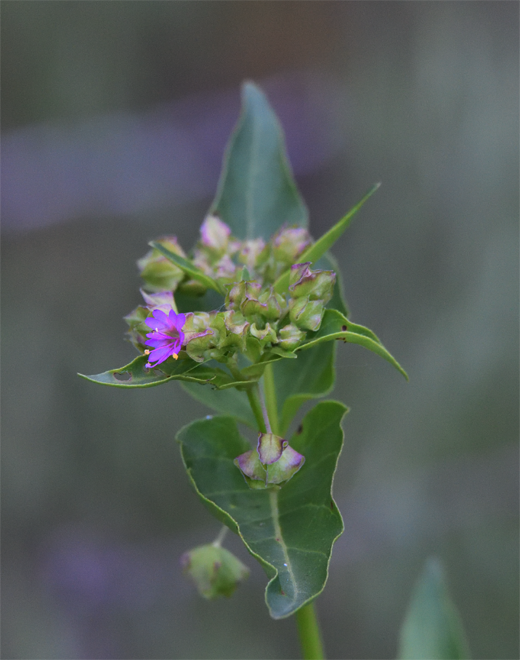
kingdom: Plantae
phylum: Tracheophyta
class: Magnoliopsida
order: Caryophyllales
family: Nyctaginaceae
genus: Mirabilis
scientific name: Mirabilis nyctaginea
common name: Umbrella wort
